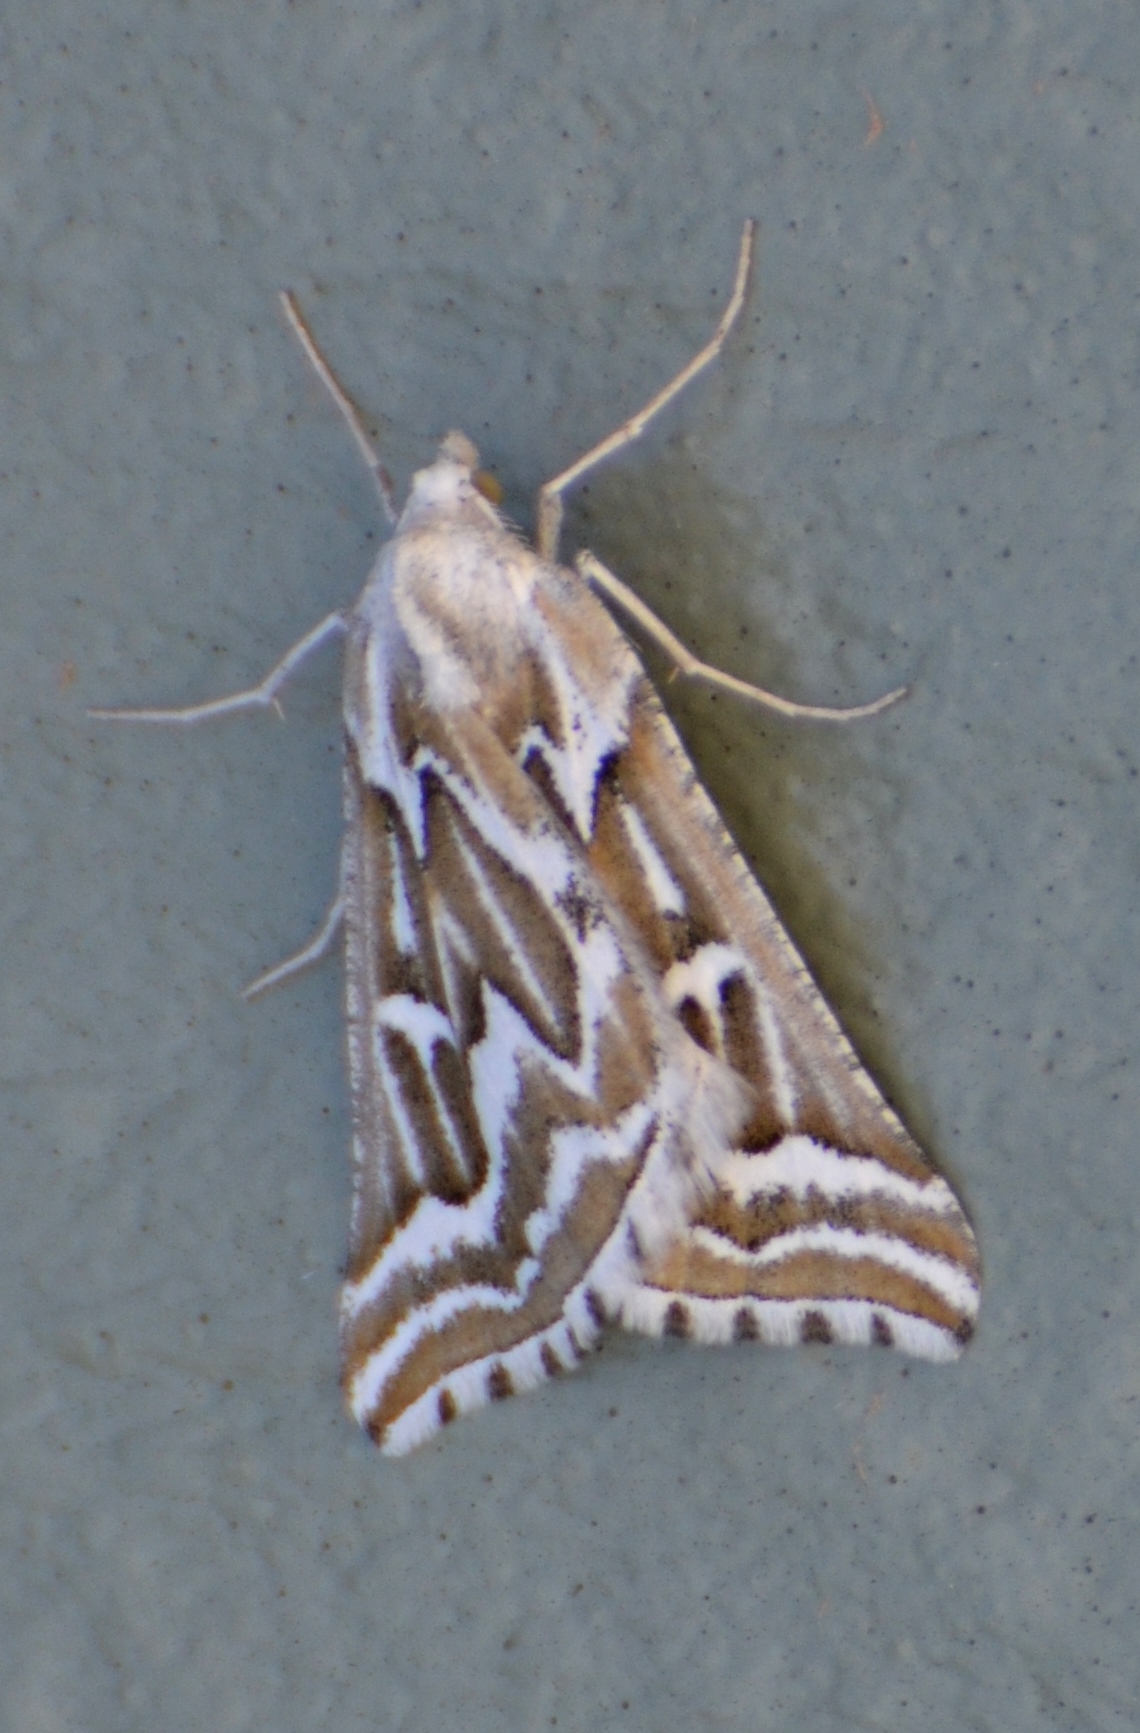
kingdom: Animalia
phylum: Arthropoda
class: Insecta
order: Lepidoptera
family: Geometridae
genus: Plataea
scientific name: Plataea trilinearia
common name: Sagebrush girdle moth
